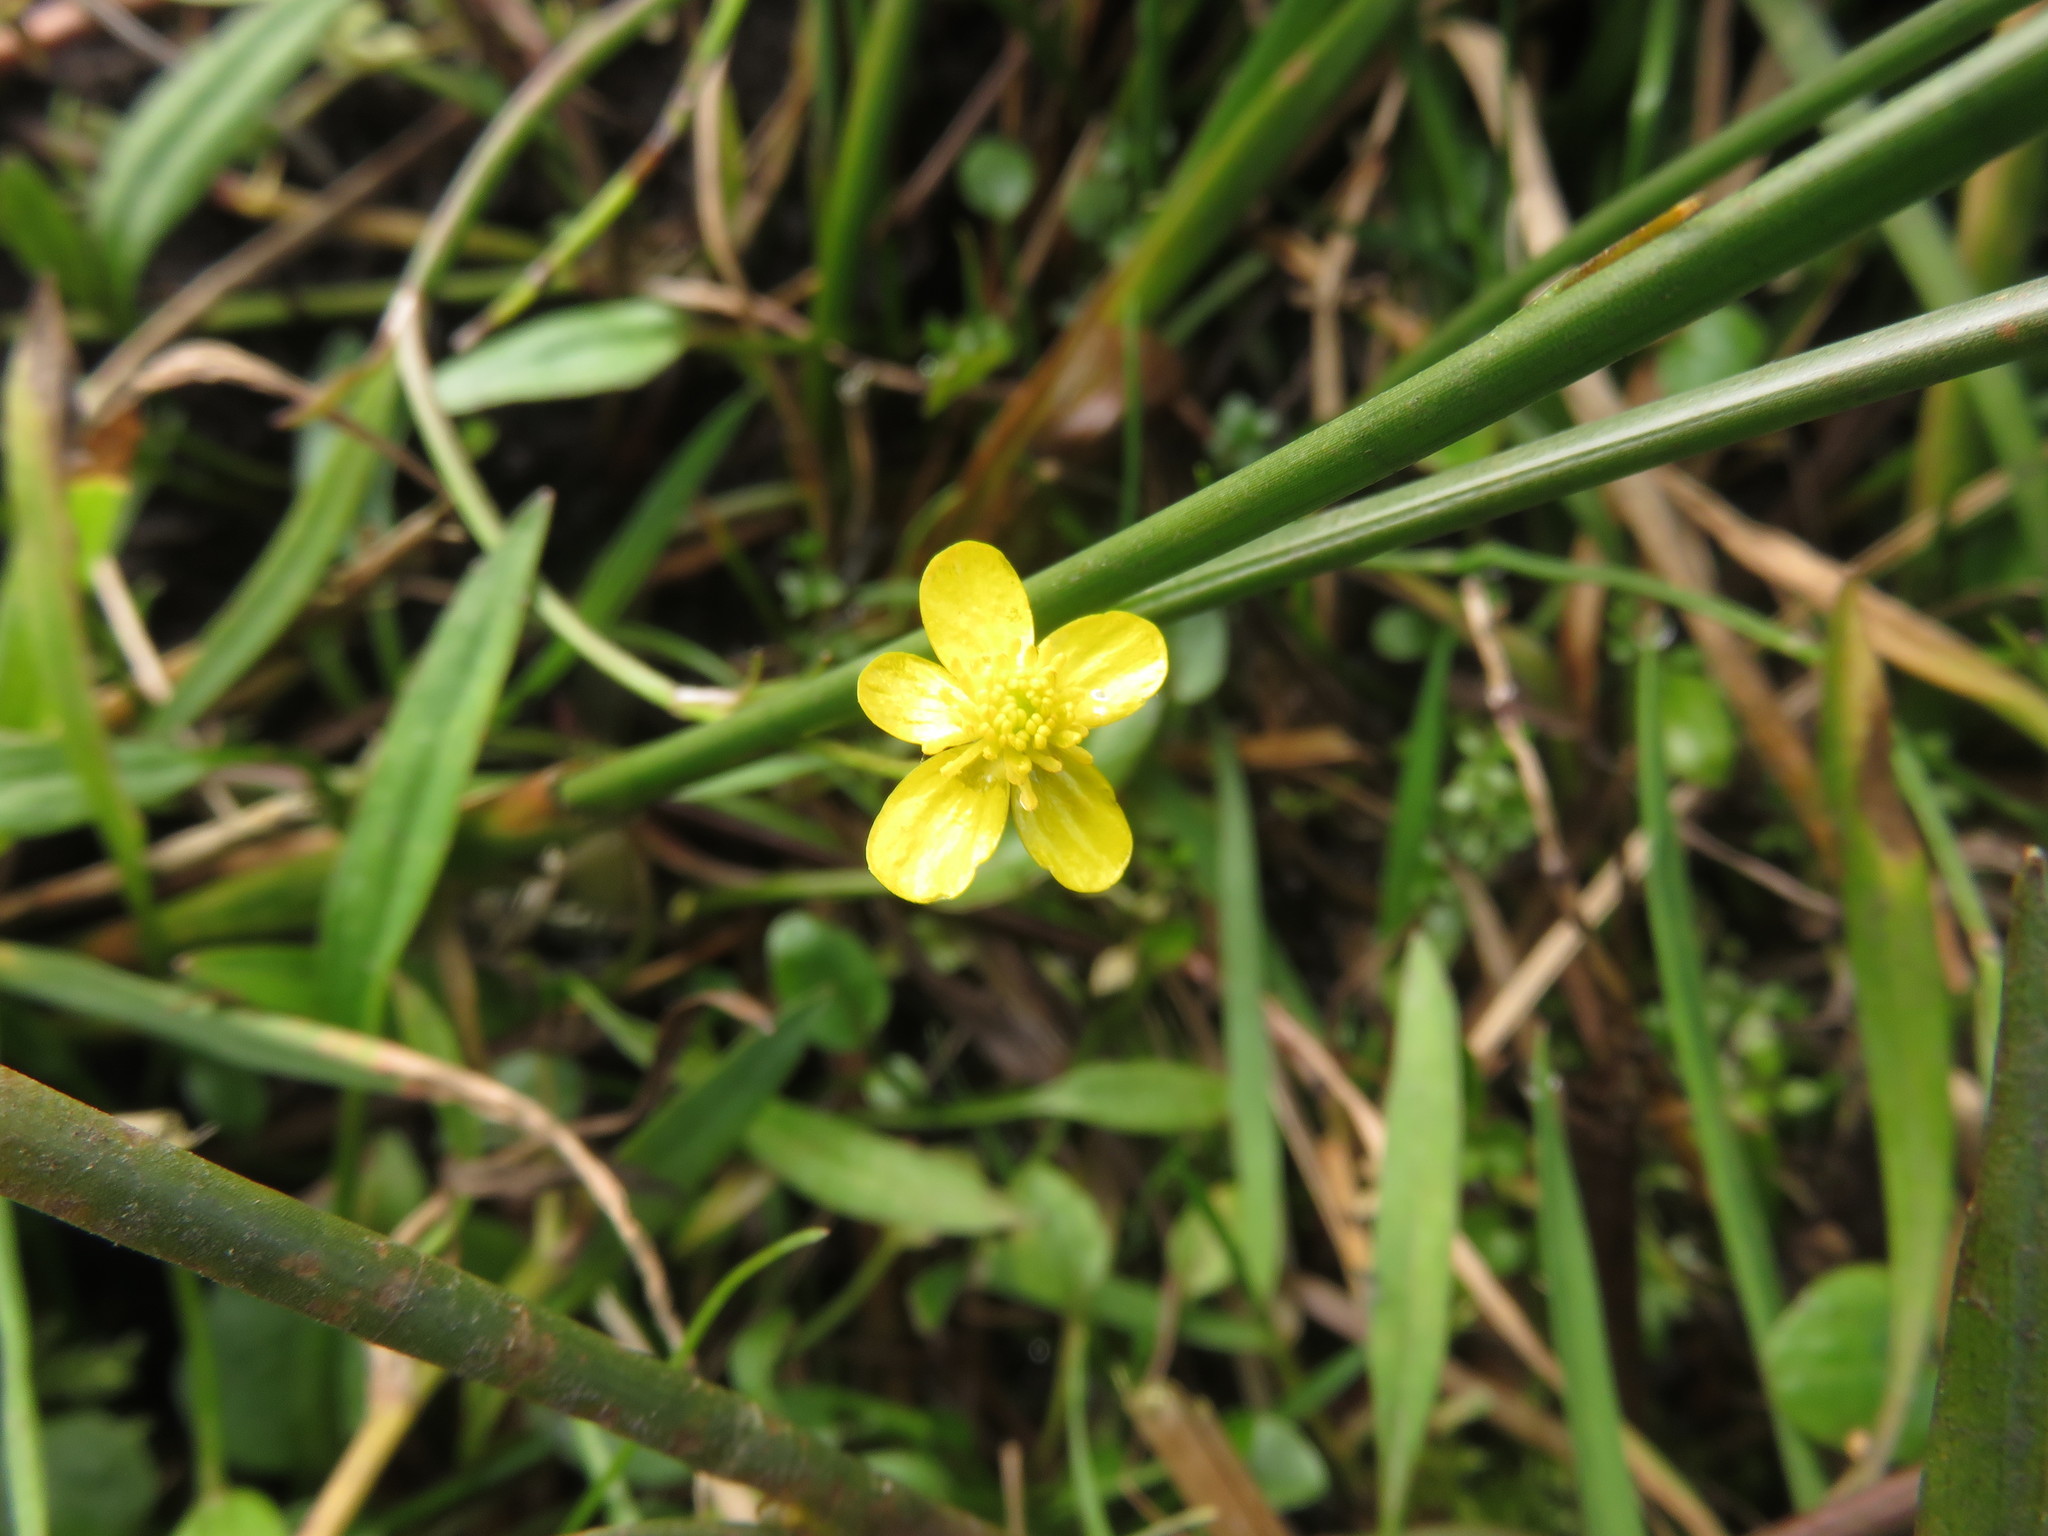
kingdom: Plantae
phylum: Tracheophyta
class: Magnoliopsida
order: Ranunculales
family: Ranunculaceae
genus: Ranunculus
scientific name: Ranunculus flammula
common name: Lesser spearwort
